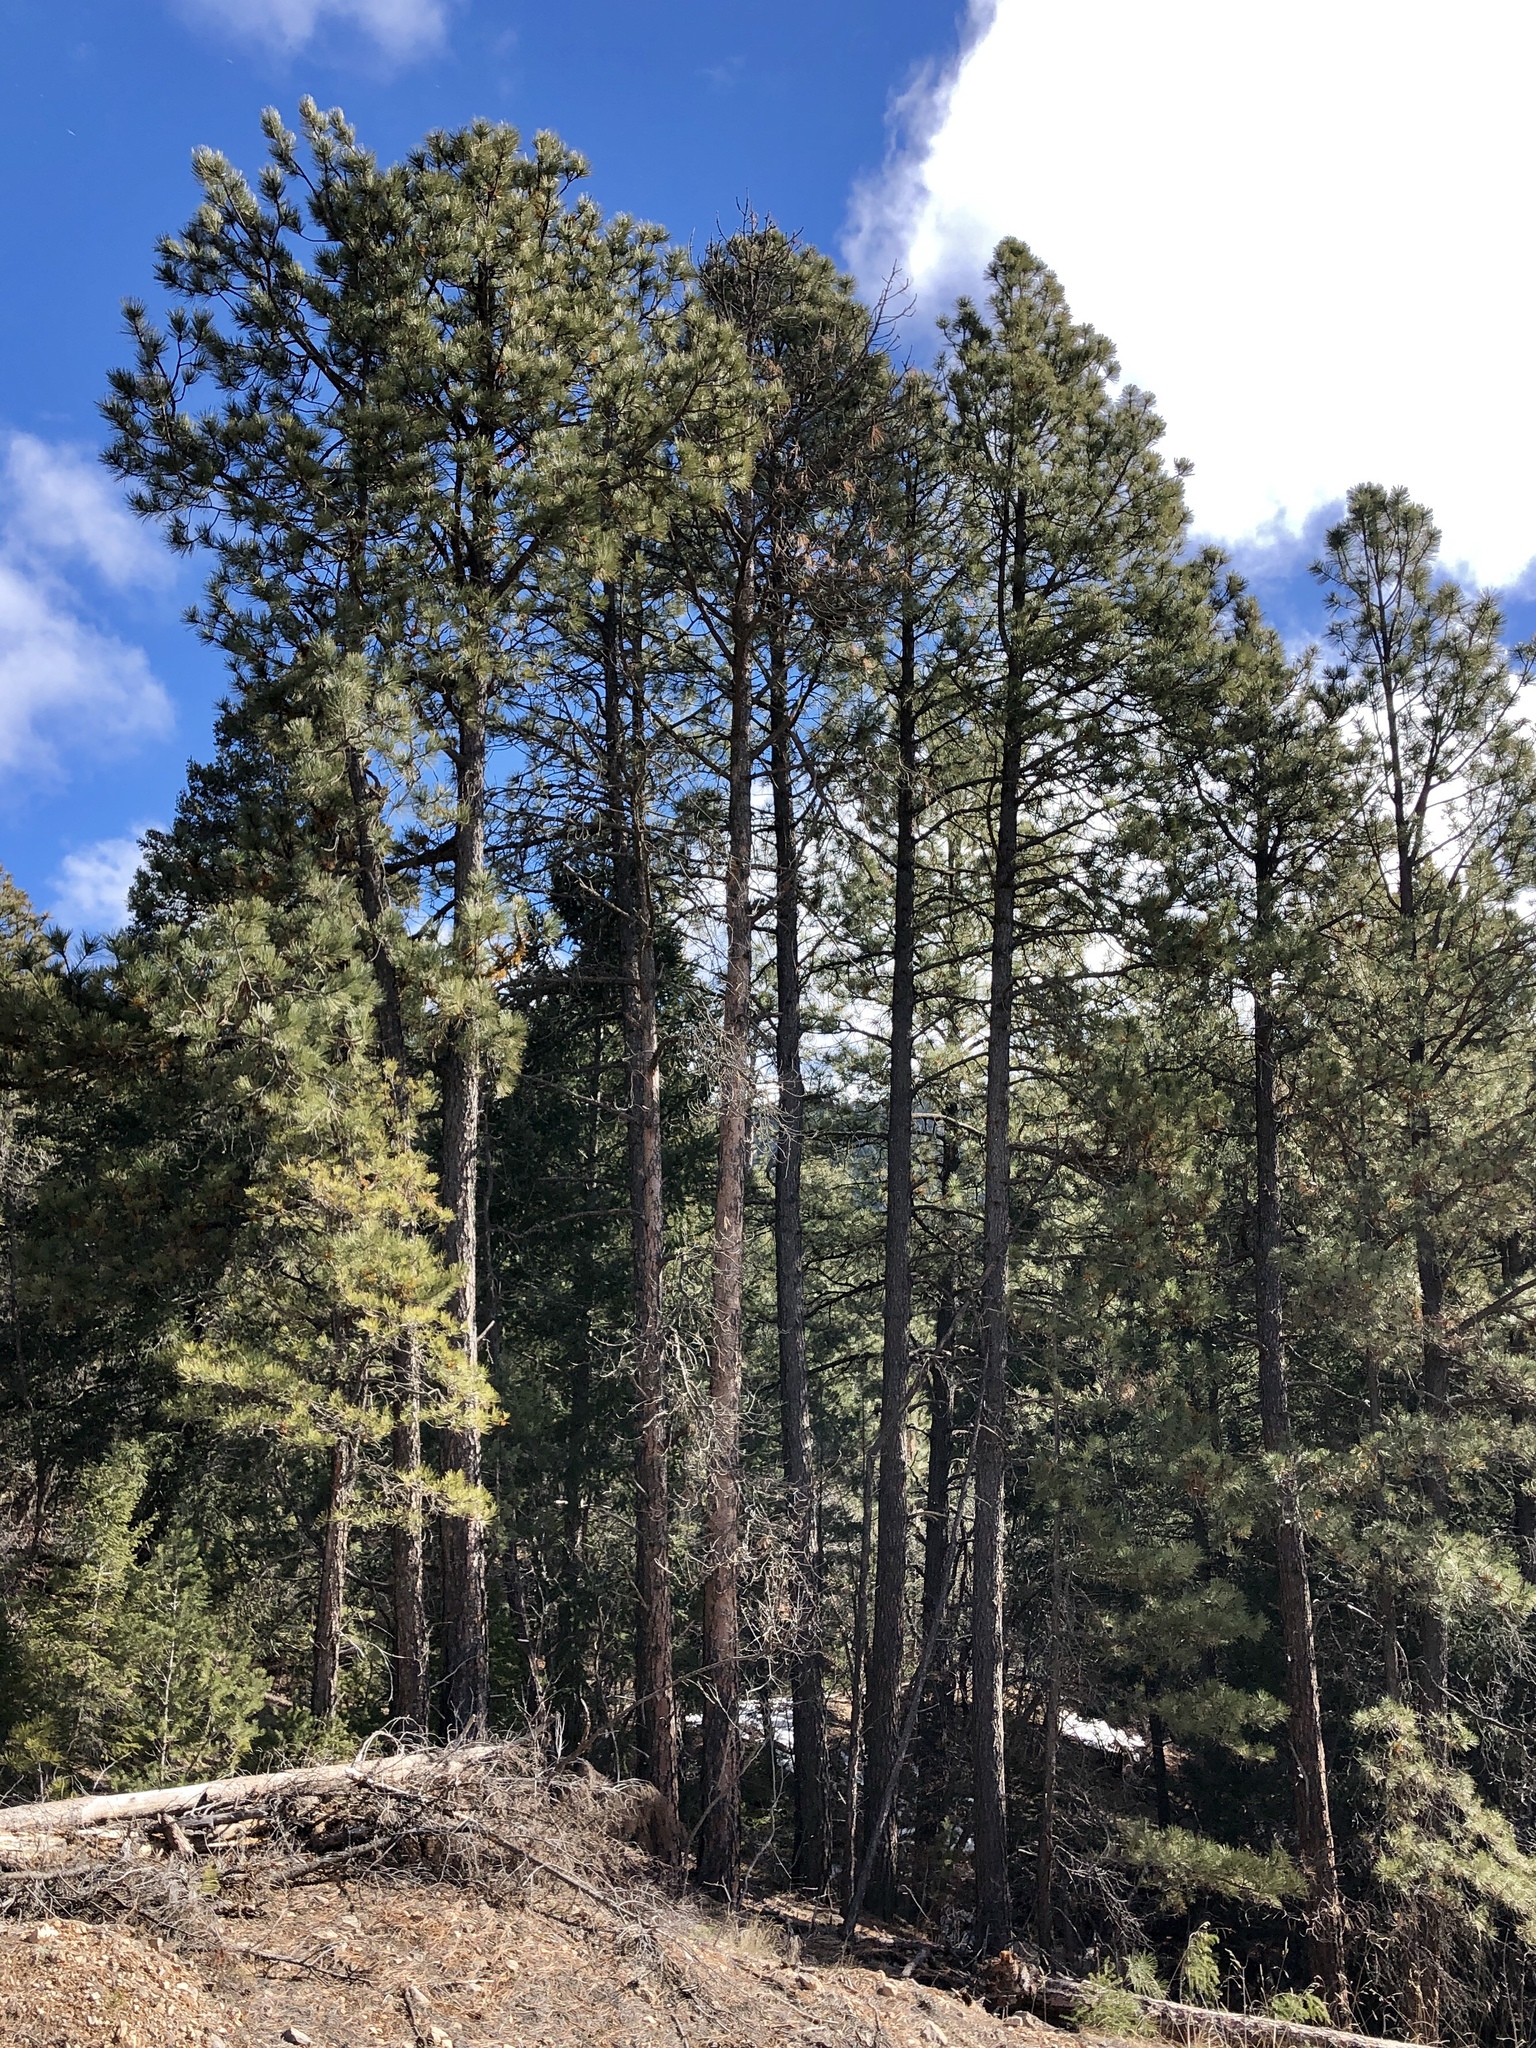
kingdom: Plantae
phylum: Tracheophyta
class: Pinopsida
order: Pinales
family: Pinaceae
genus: Pinus
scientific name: Pinus ponderosa
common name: Western yellow-pine
